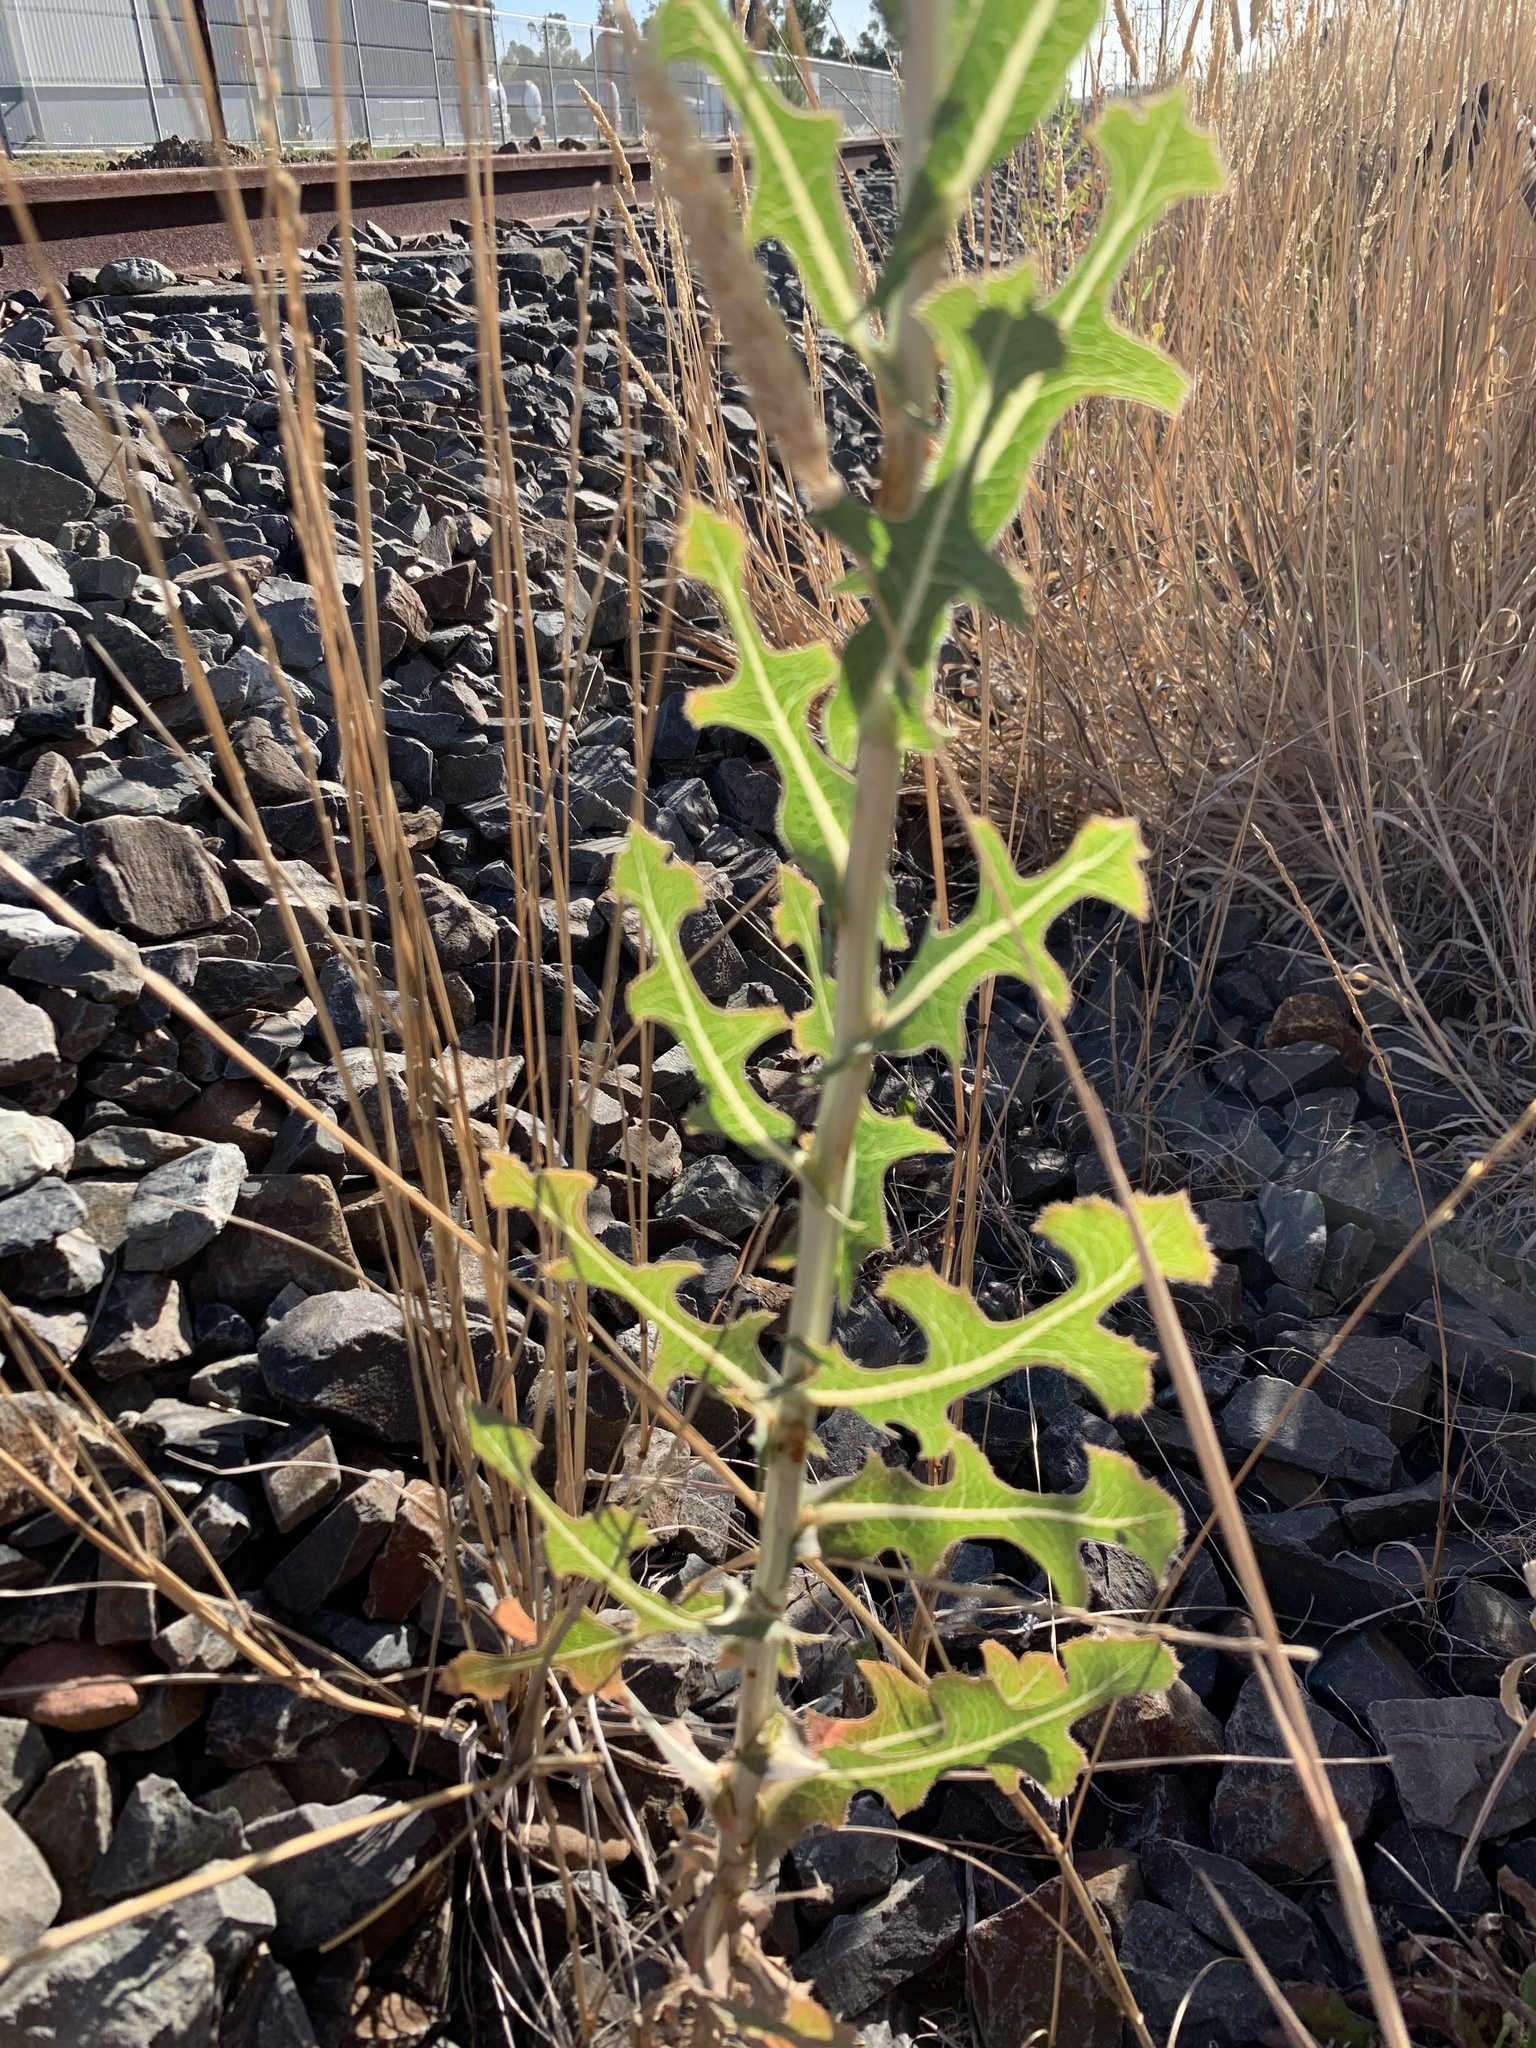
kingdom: Plantae
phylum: Tracheophyta
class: Magnoliopsida
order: Asterales
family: Asteraceae
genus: Lactuca
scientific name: Lactuca serriola
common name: Prickly lettuce
